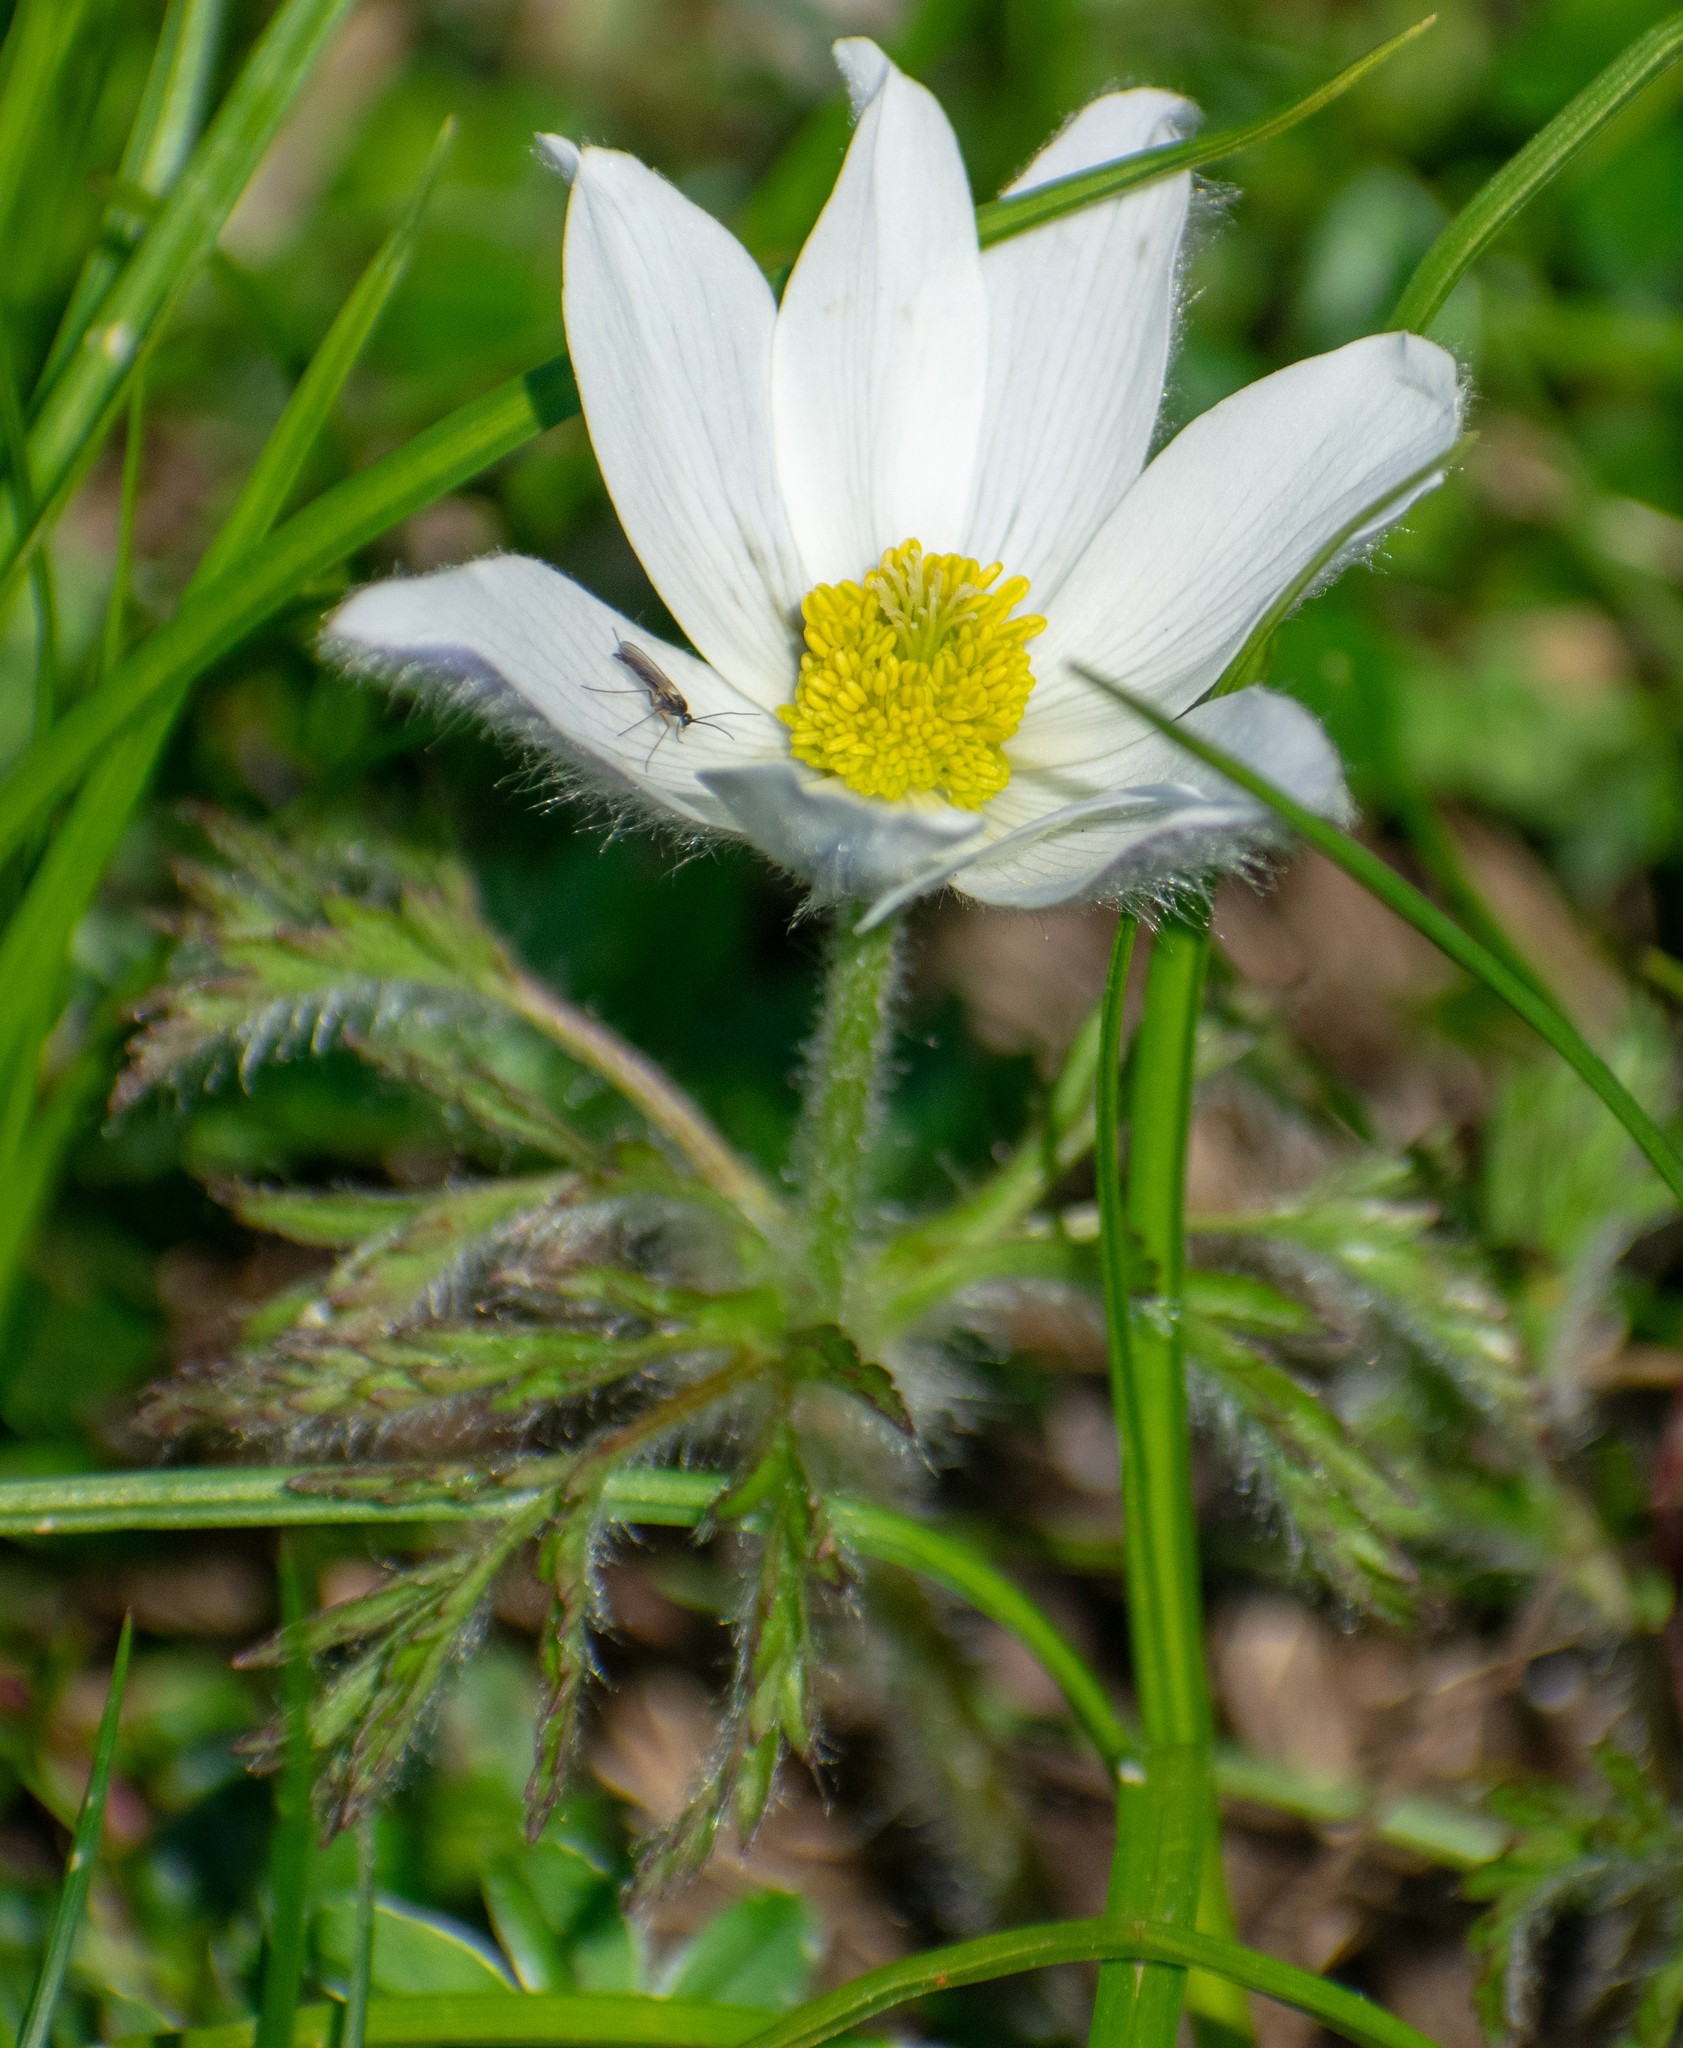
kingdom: Plantae
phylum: Tracheophyta
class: Magnoliopsida
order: Ranunculales
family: Ranunculaceae
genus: Pulsatilla
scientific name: Pulsatilla alpina
